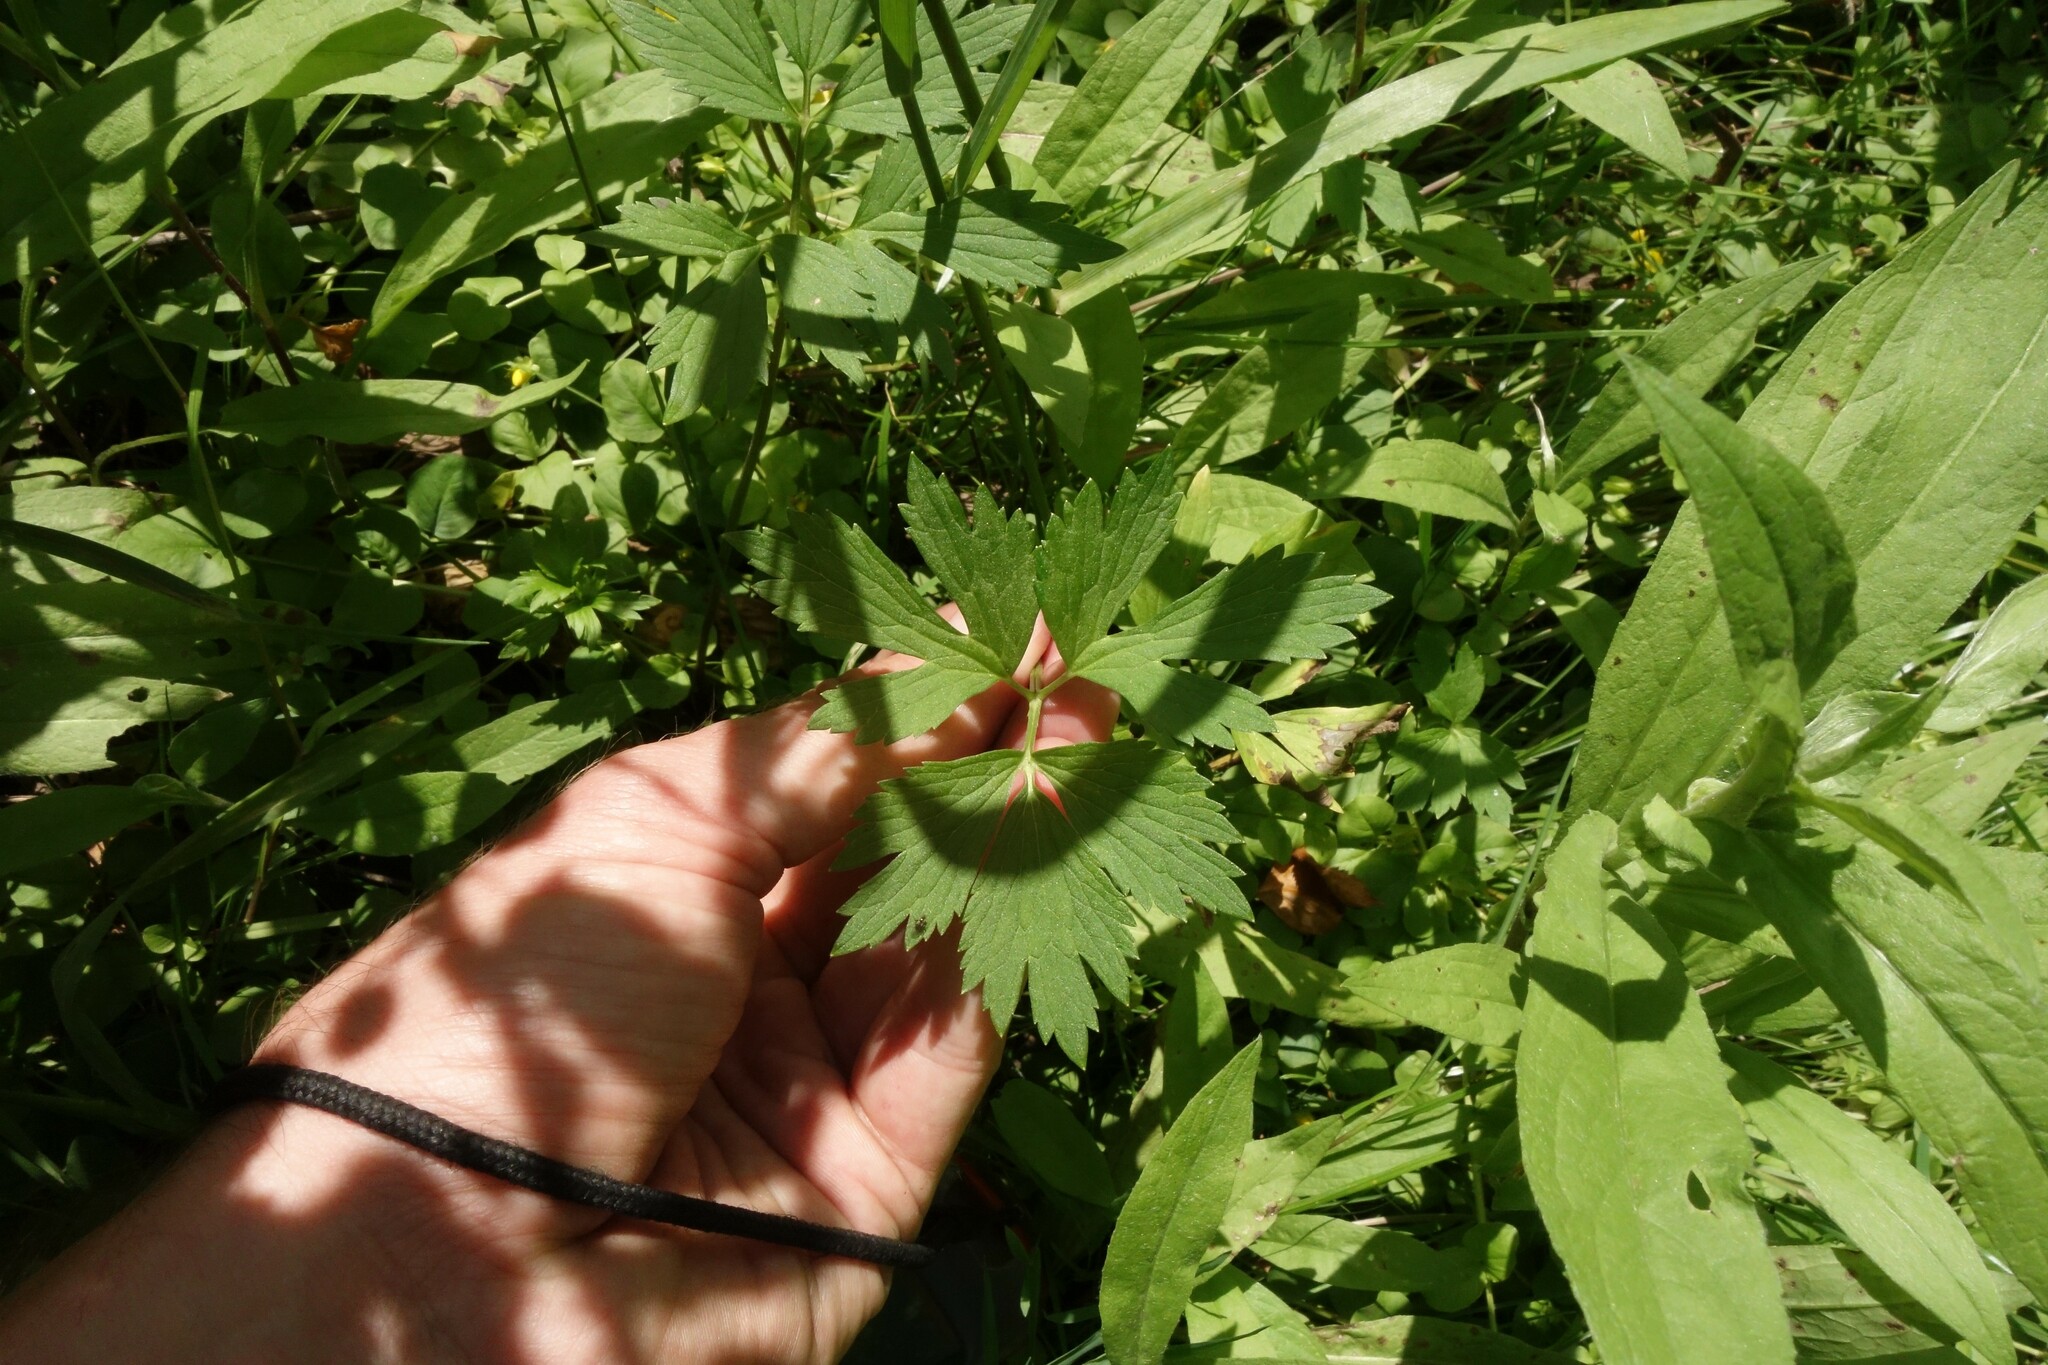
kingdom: Plantae
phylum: Tracheophyta
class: Magnoliopsida
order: Ranunculales
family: Ranunculaceae
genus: Ranunculus
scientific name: Ranunculus repens
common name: Creeping buttercup
